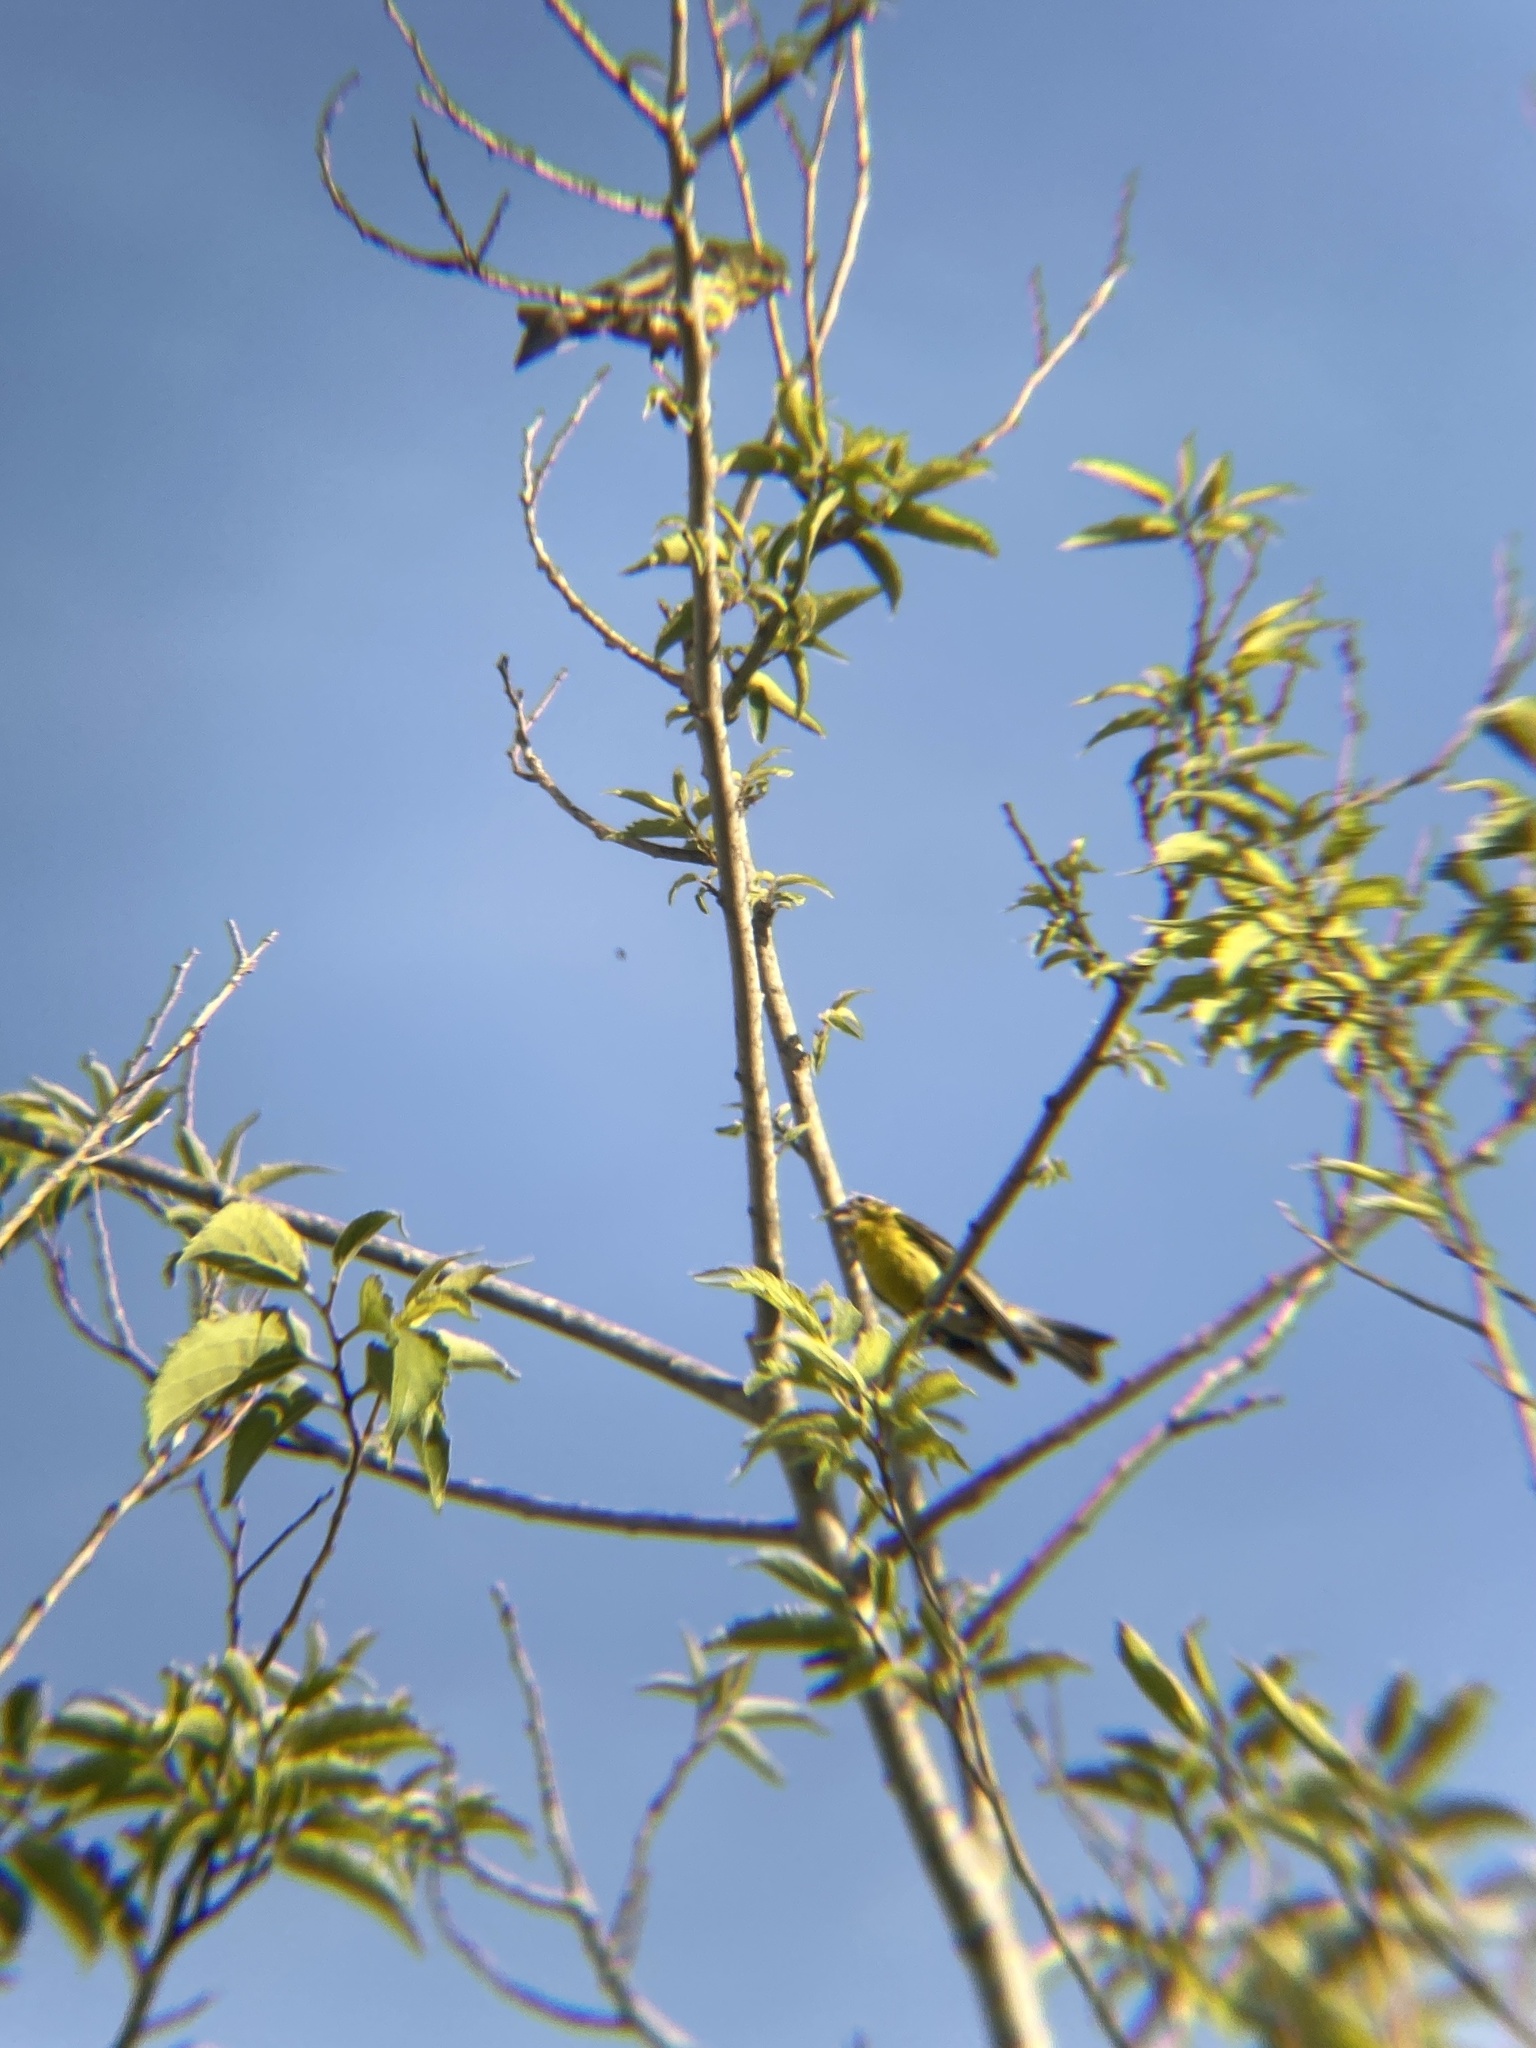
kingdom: Animalia
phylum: Chordata
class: Aves
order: Passeriformes
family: Fringillidae
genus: Serinus
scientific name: Serinus serinus
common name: European serin
